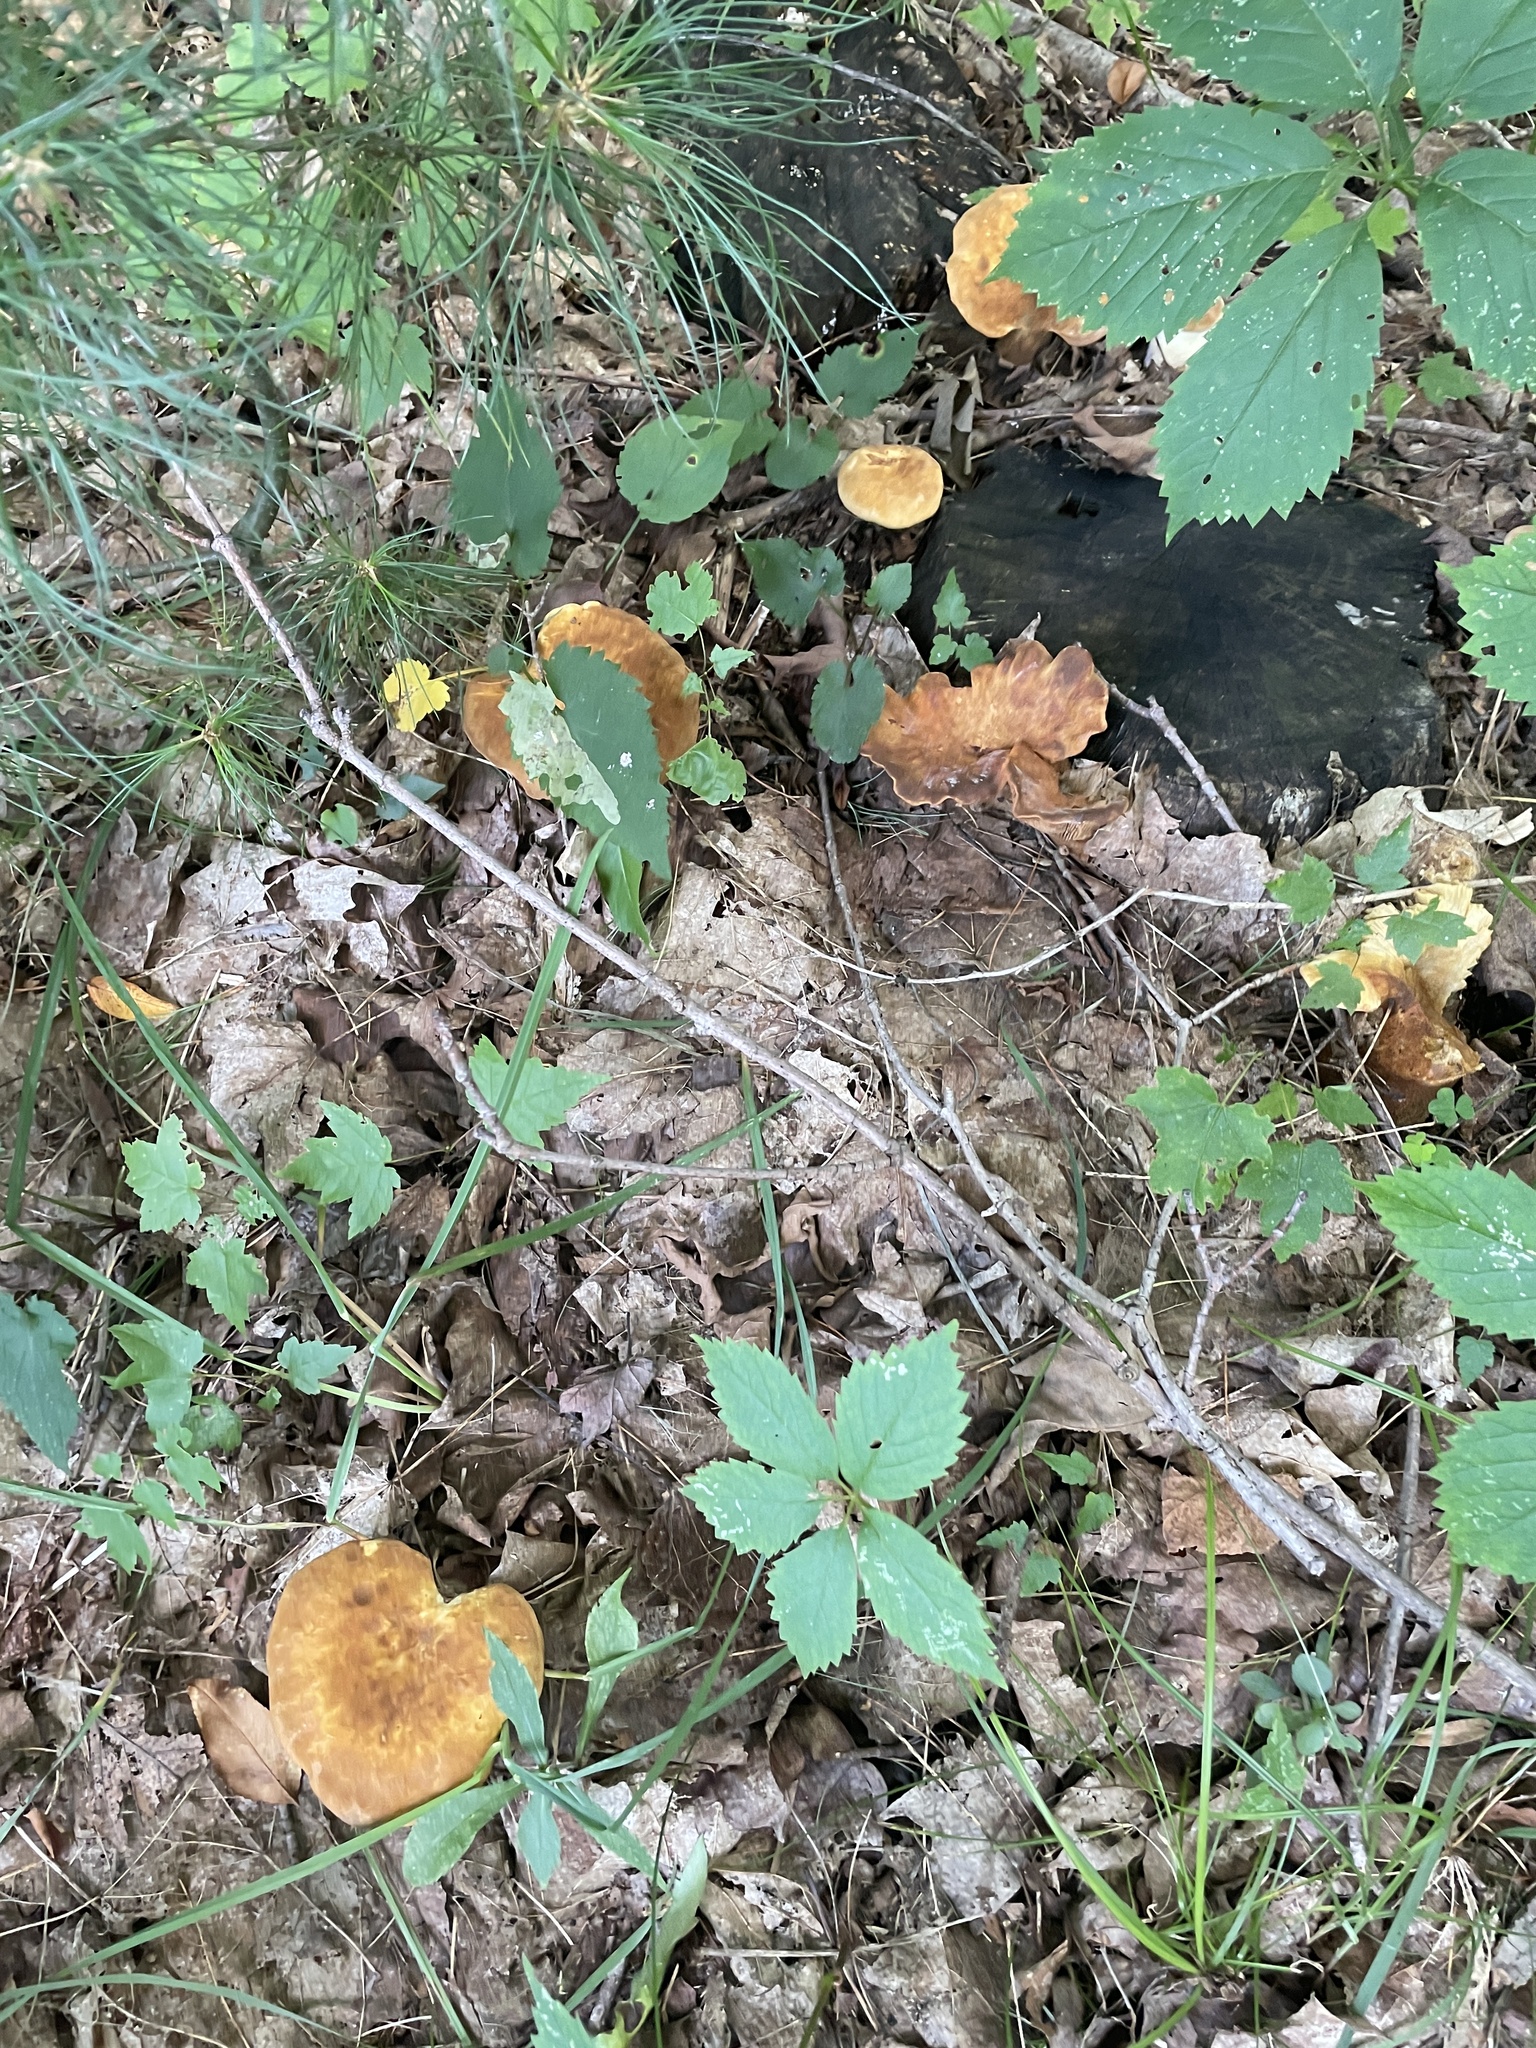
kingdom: Fungi
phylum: Basidiomycota
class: Agaricomycetes
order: Boletales
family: Tapinellaceae
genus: Tapinella
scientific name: Tapinella atrotomentosa
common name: Velvet rollrim
